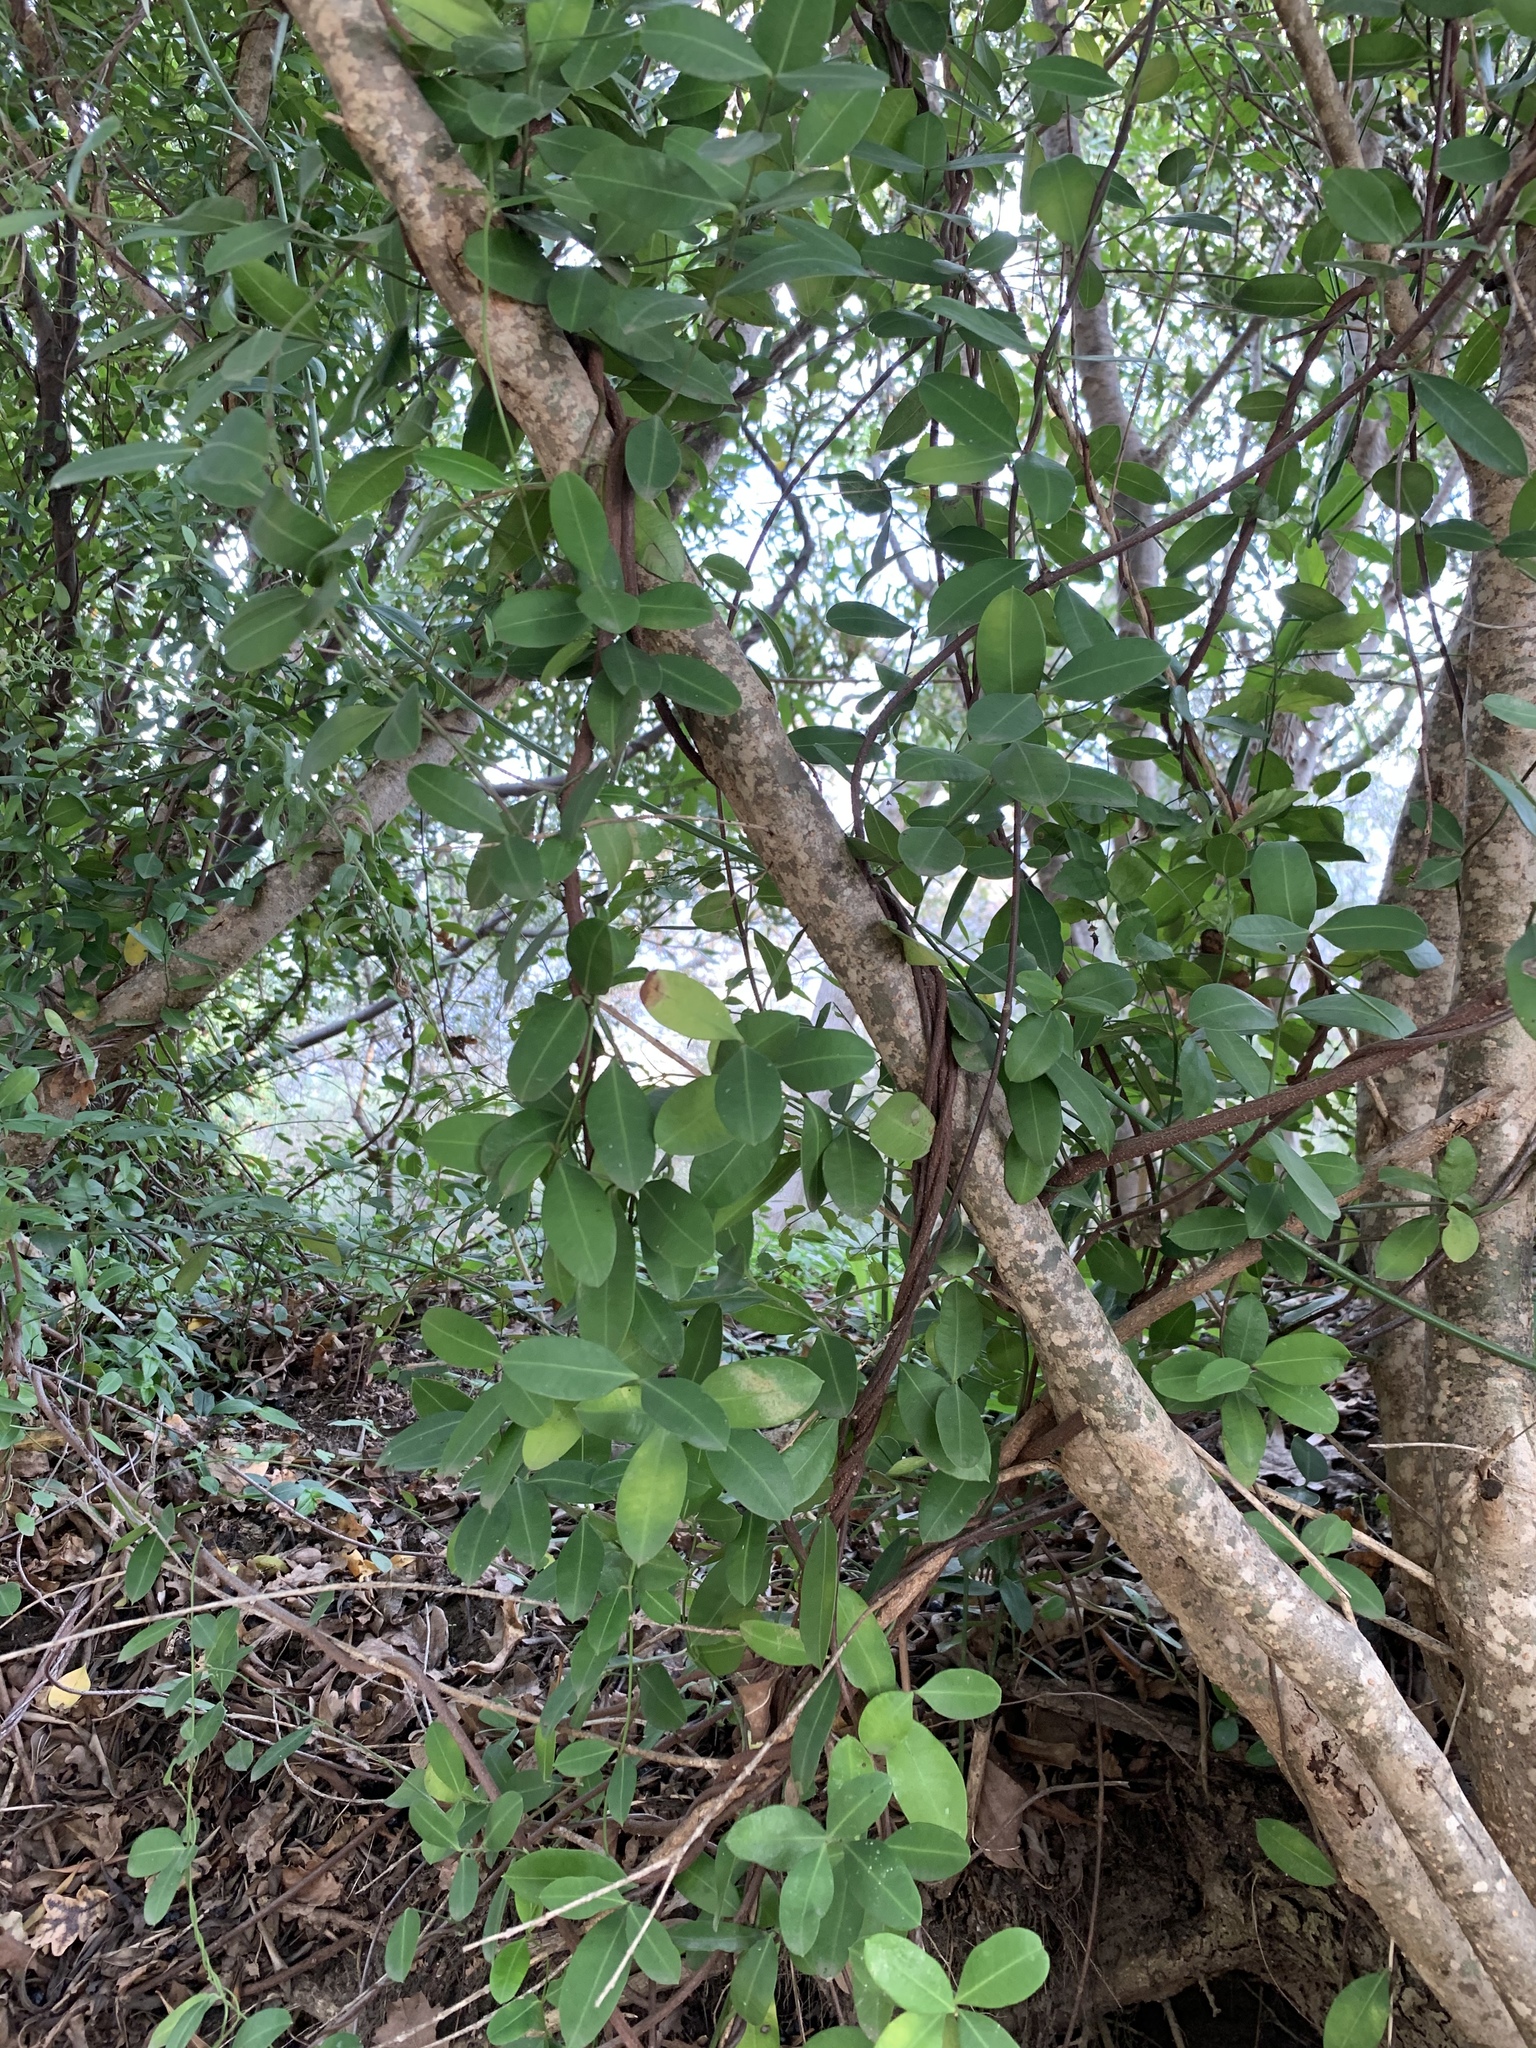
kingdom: Plantae
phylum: Tracheophyta
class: Magnoliopsida
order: Gentianales
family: Apocynaceae
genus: Secamone
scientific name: Secamone alpini
